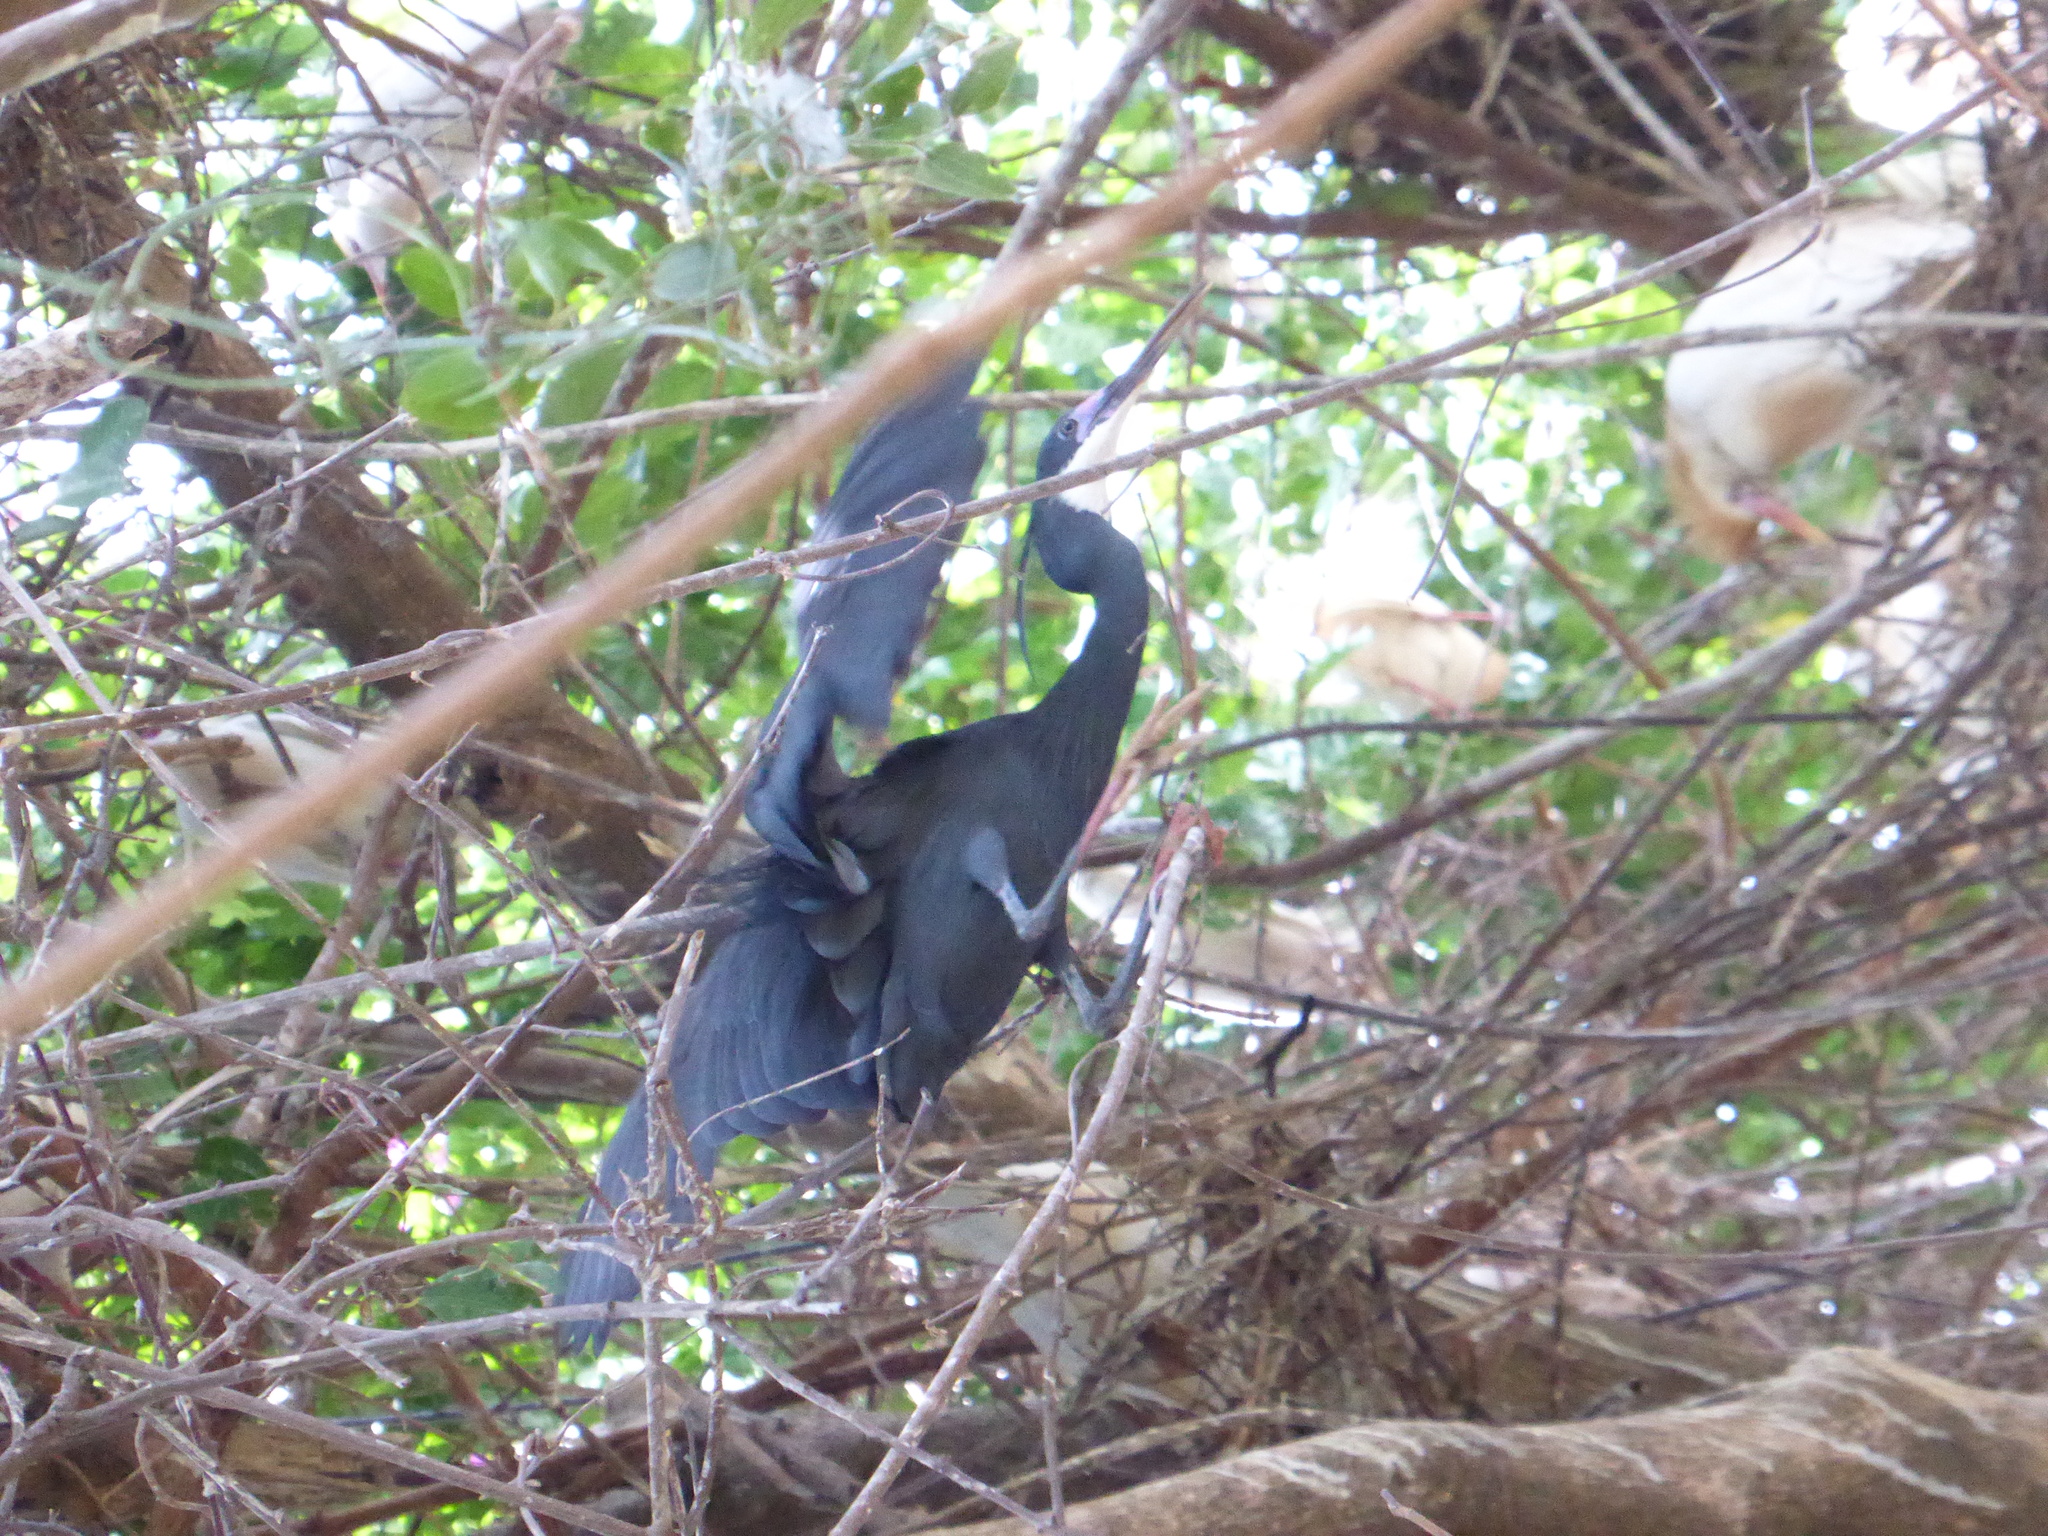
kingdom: Animalia
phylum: Chordata
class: Aves
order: Pelecaniformes
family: Ardeidae
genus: Egretta
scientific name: Egretta gularis
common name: Western reef-heron
